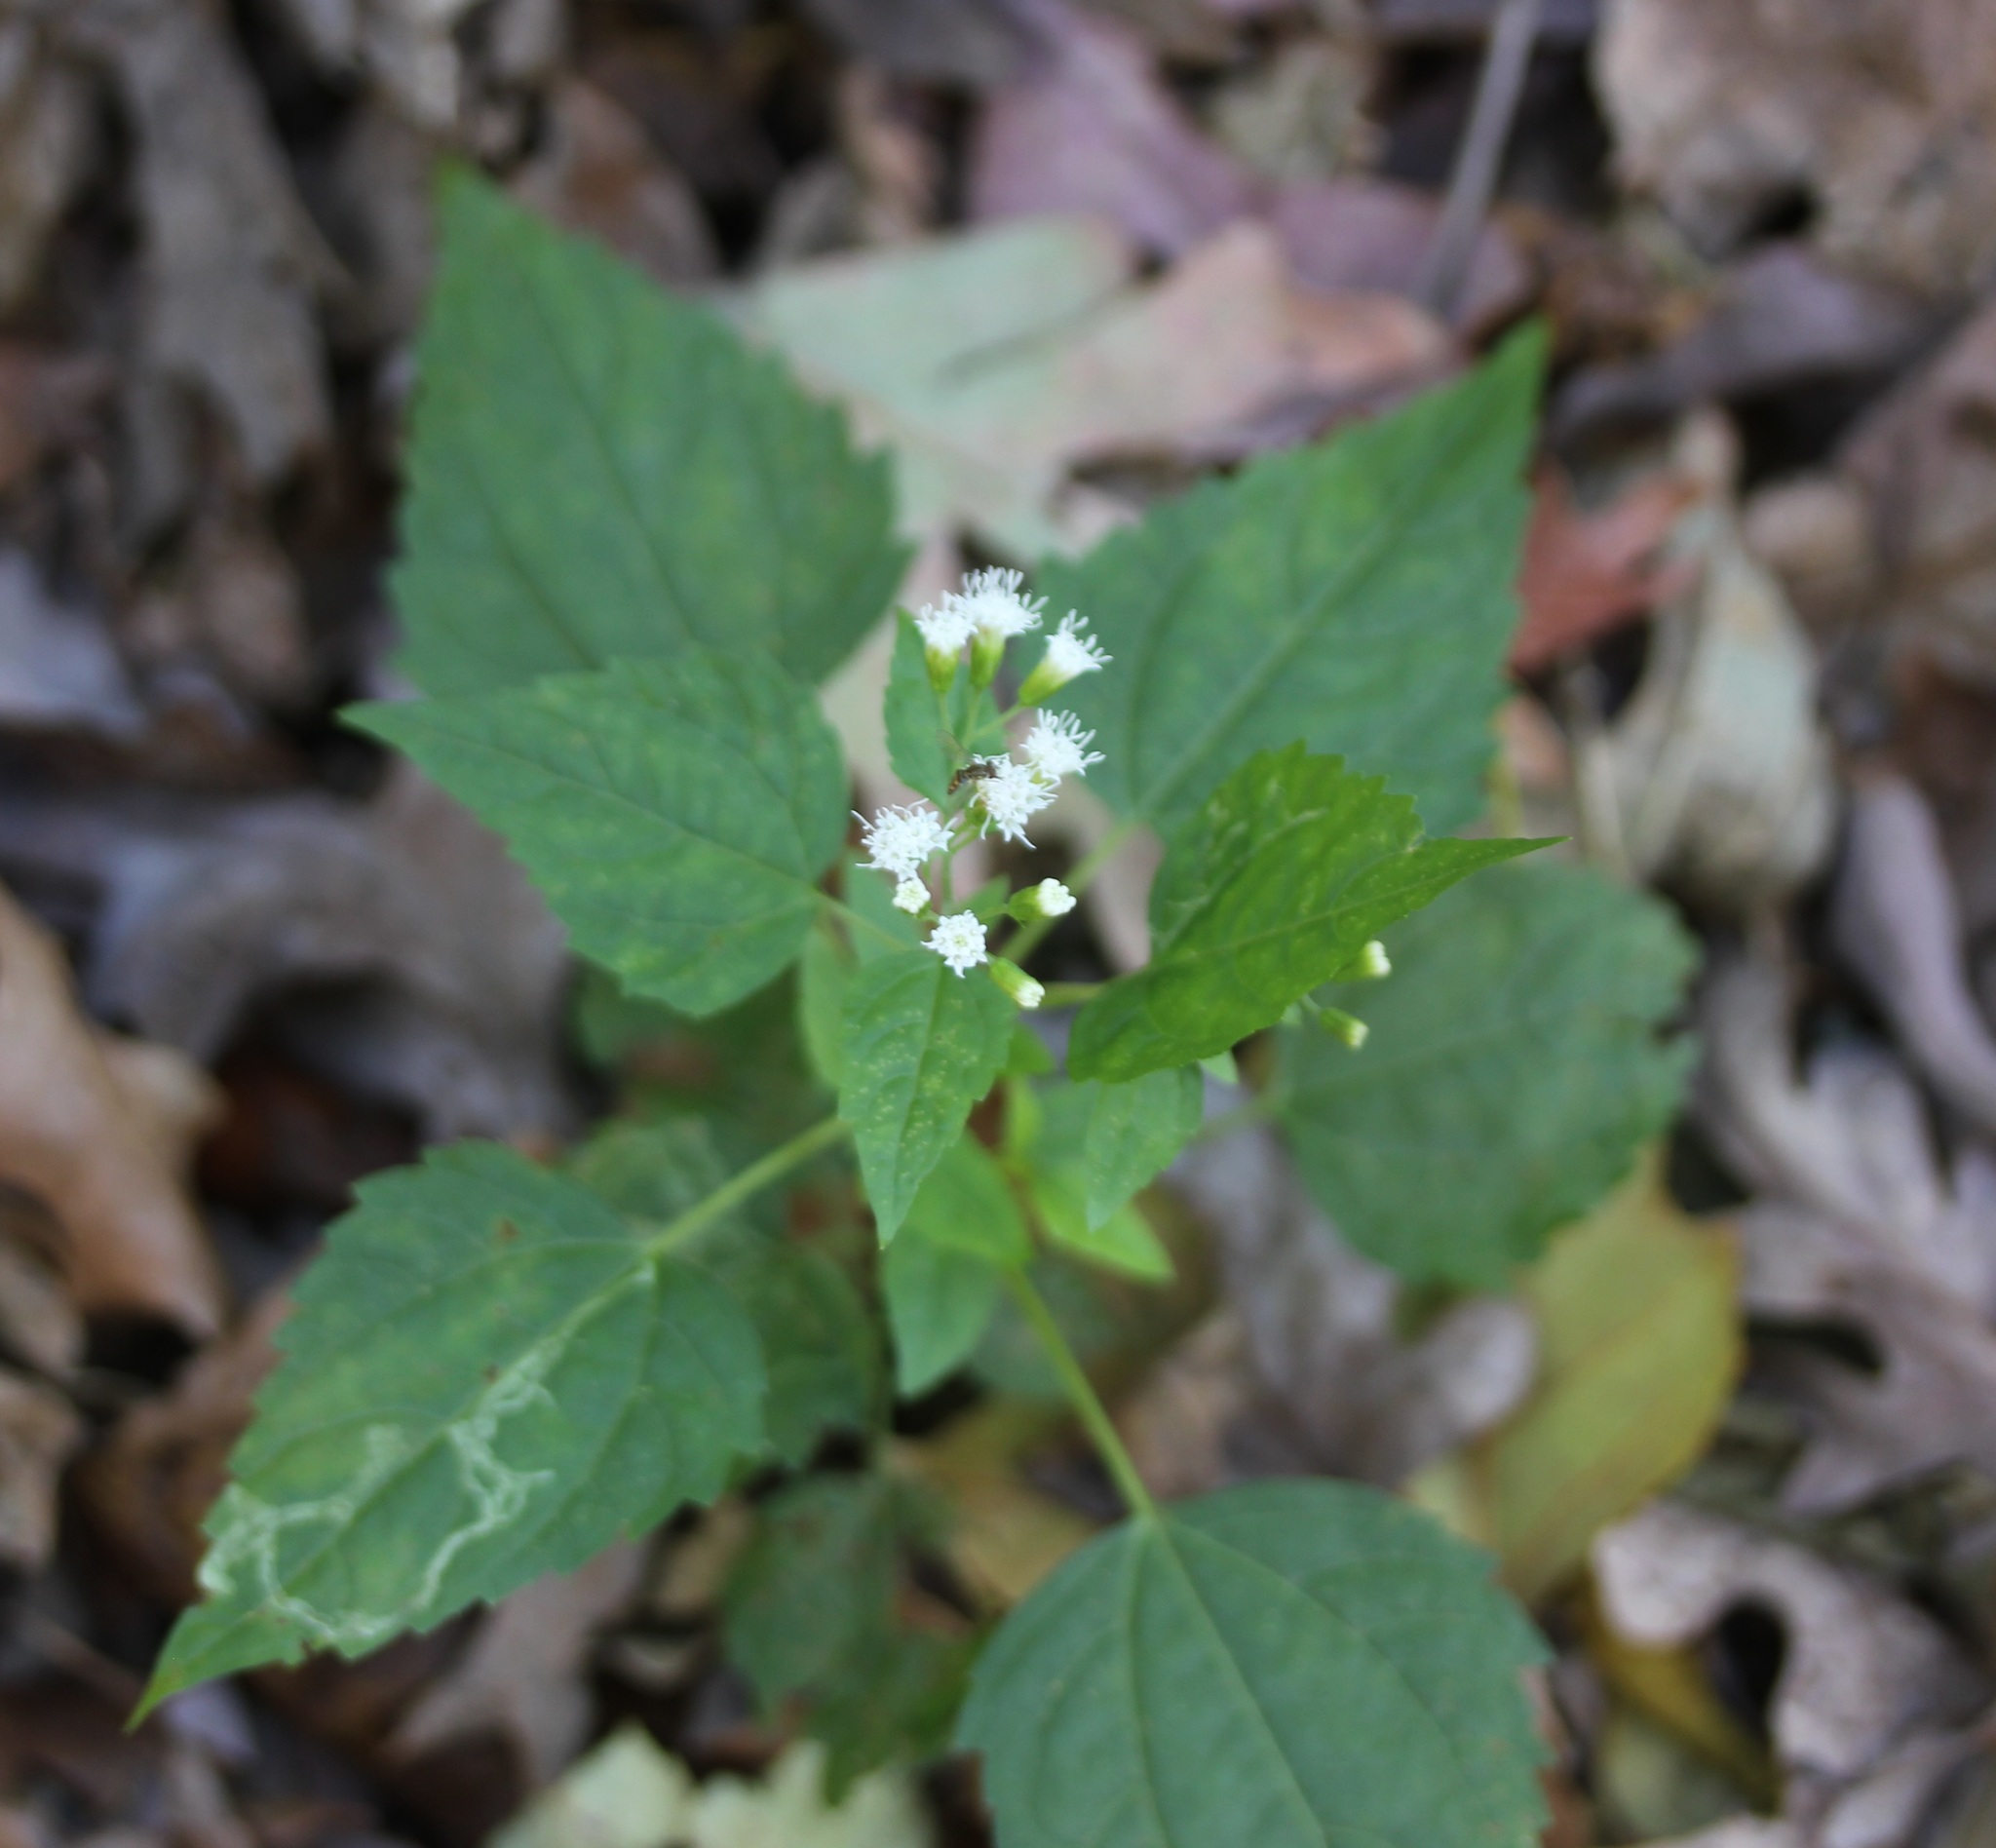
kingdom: Plantae
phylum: Tracheophyta
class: Magnoliopsida
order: Asterales
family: Asteraceae
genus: Ageratina
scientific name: Ageratina altissima
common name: White snakeroot
